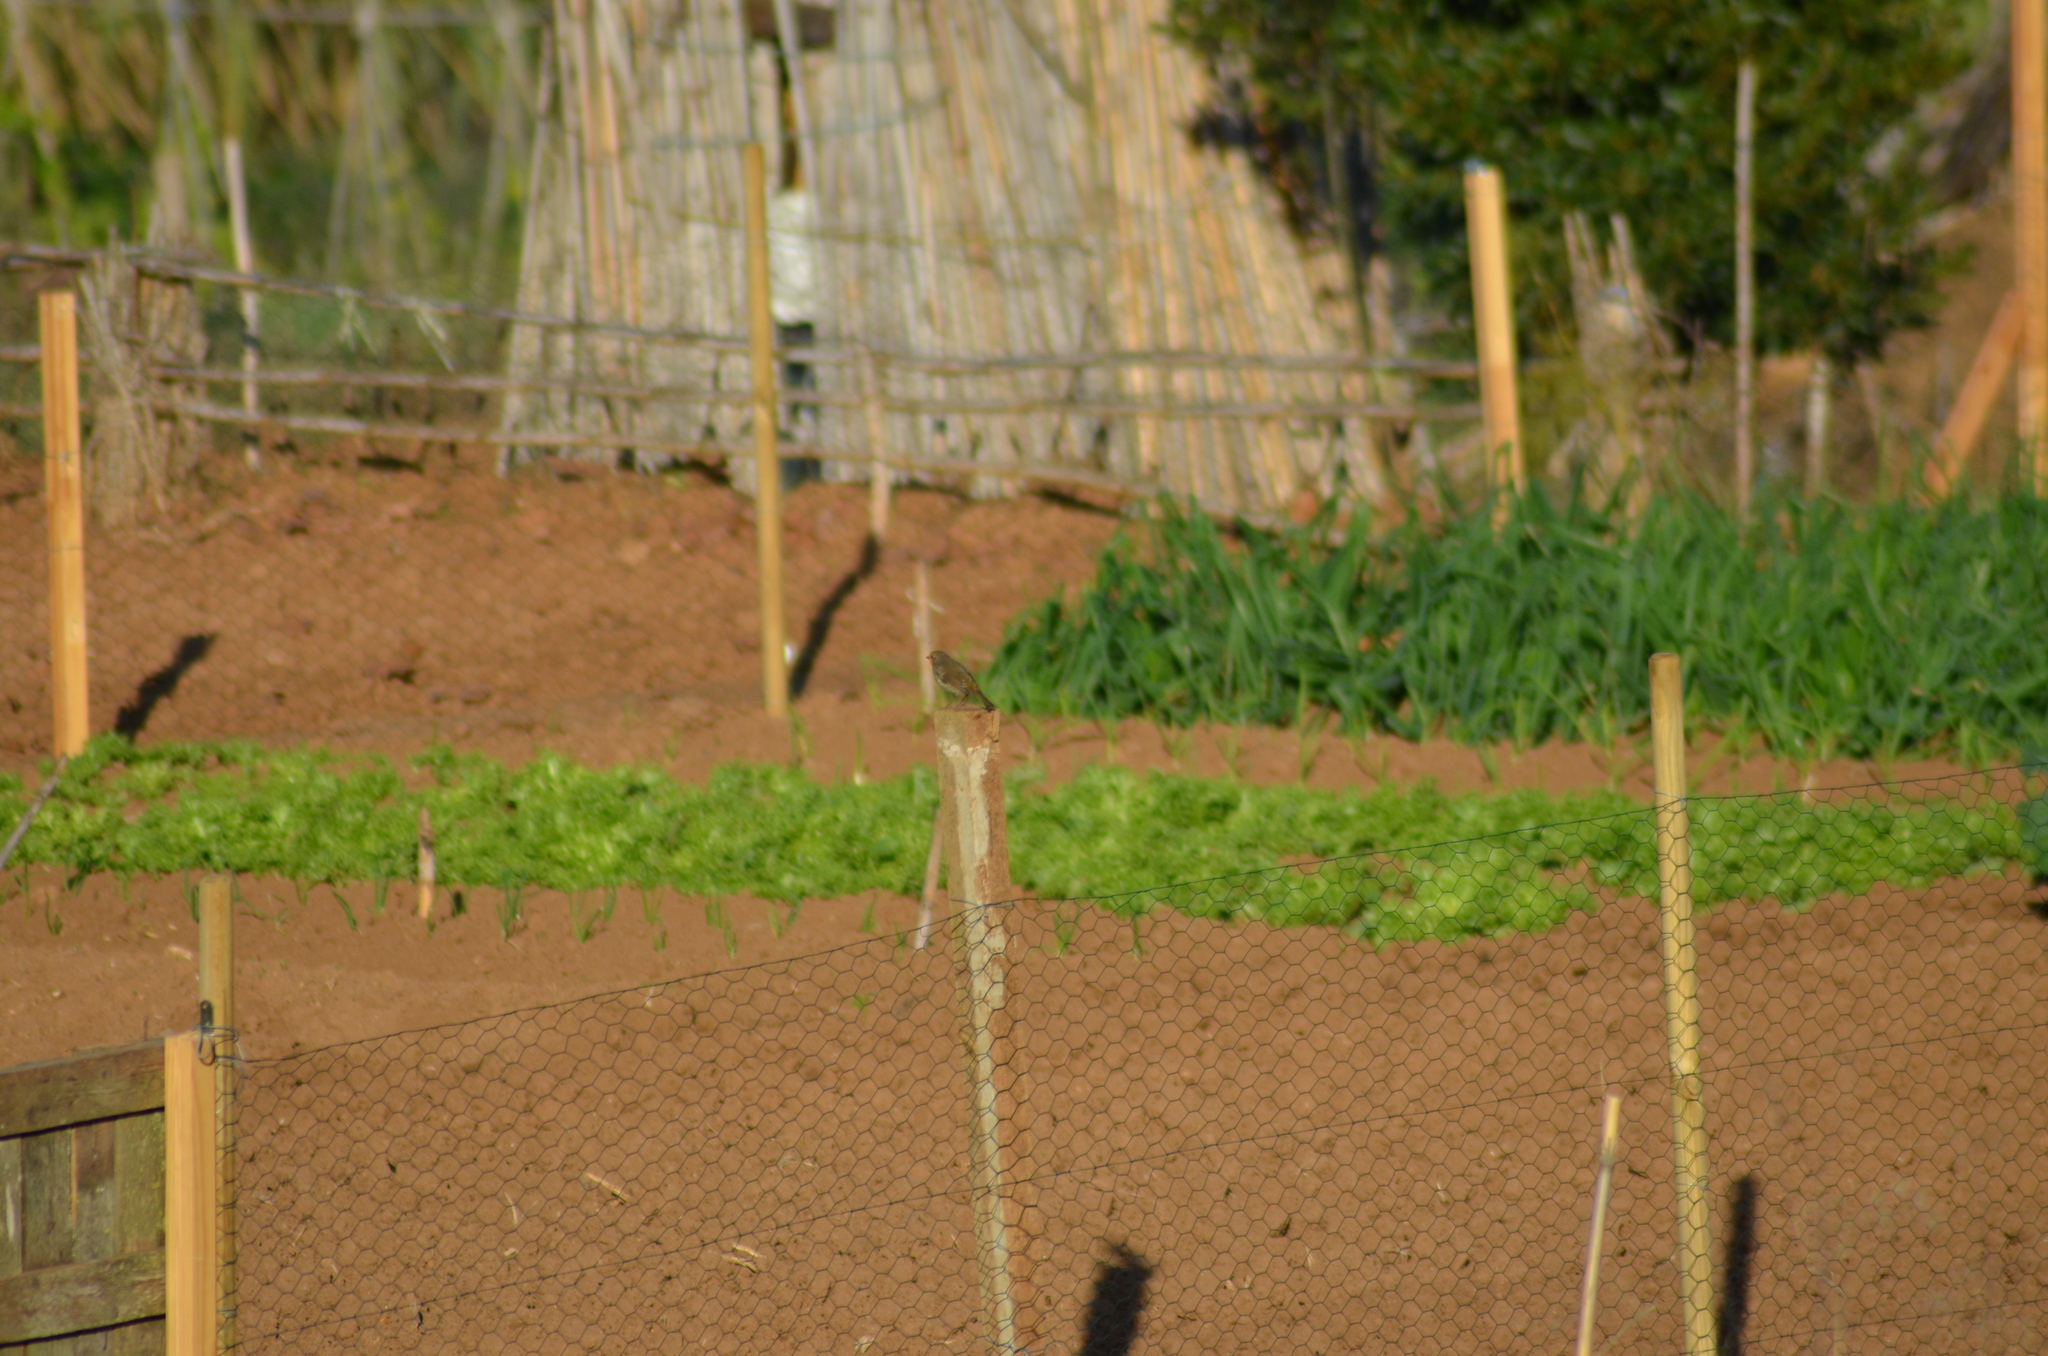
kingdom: Animalia
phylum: Chordata
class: Aves
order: Passeriformes
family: Muscicapidae
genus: Erithacus
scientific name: Erithacus rubecula
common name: European robin
